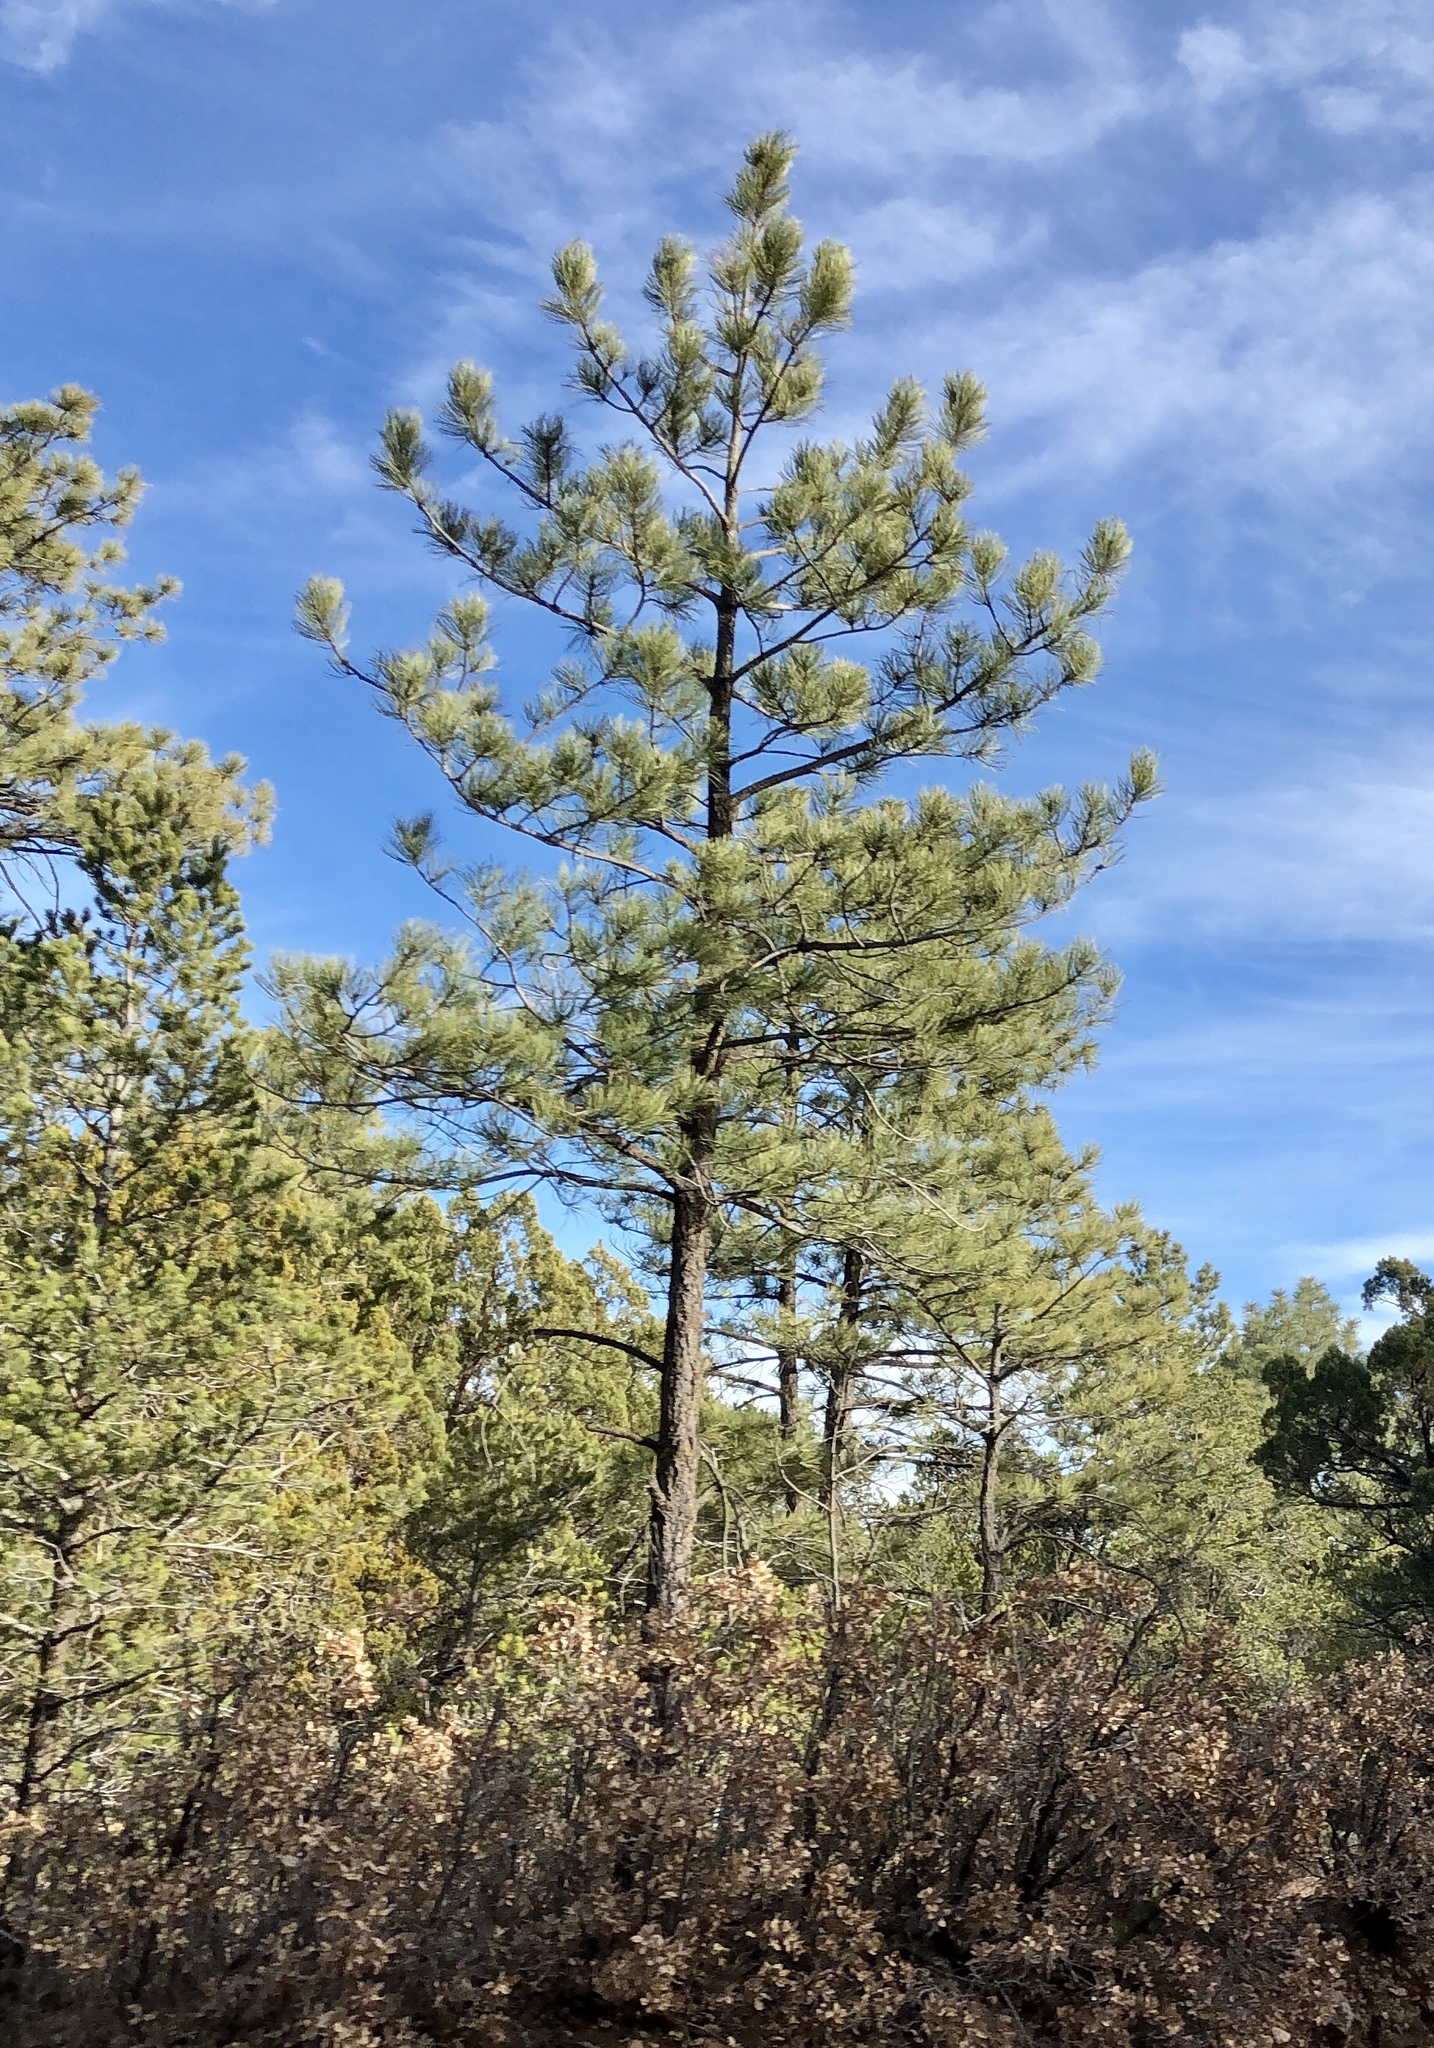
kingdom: Plantae
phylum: Tracheophyta
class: Pinopsida
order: Pinales
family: Pinaceae
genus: Pinus
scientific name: Pinus ponderosa
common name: Western yellow-pine
